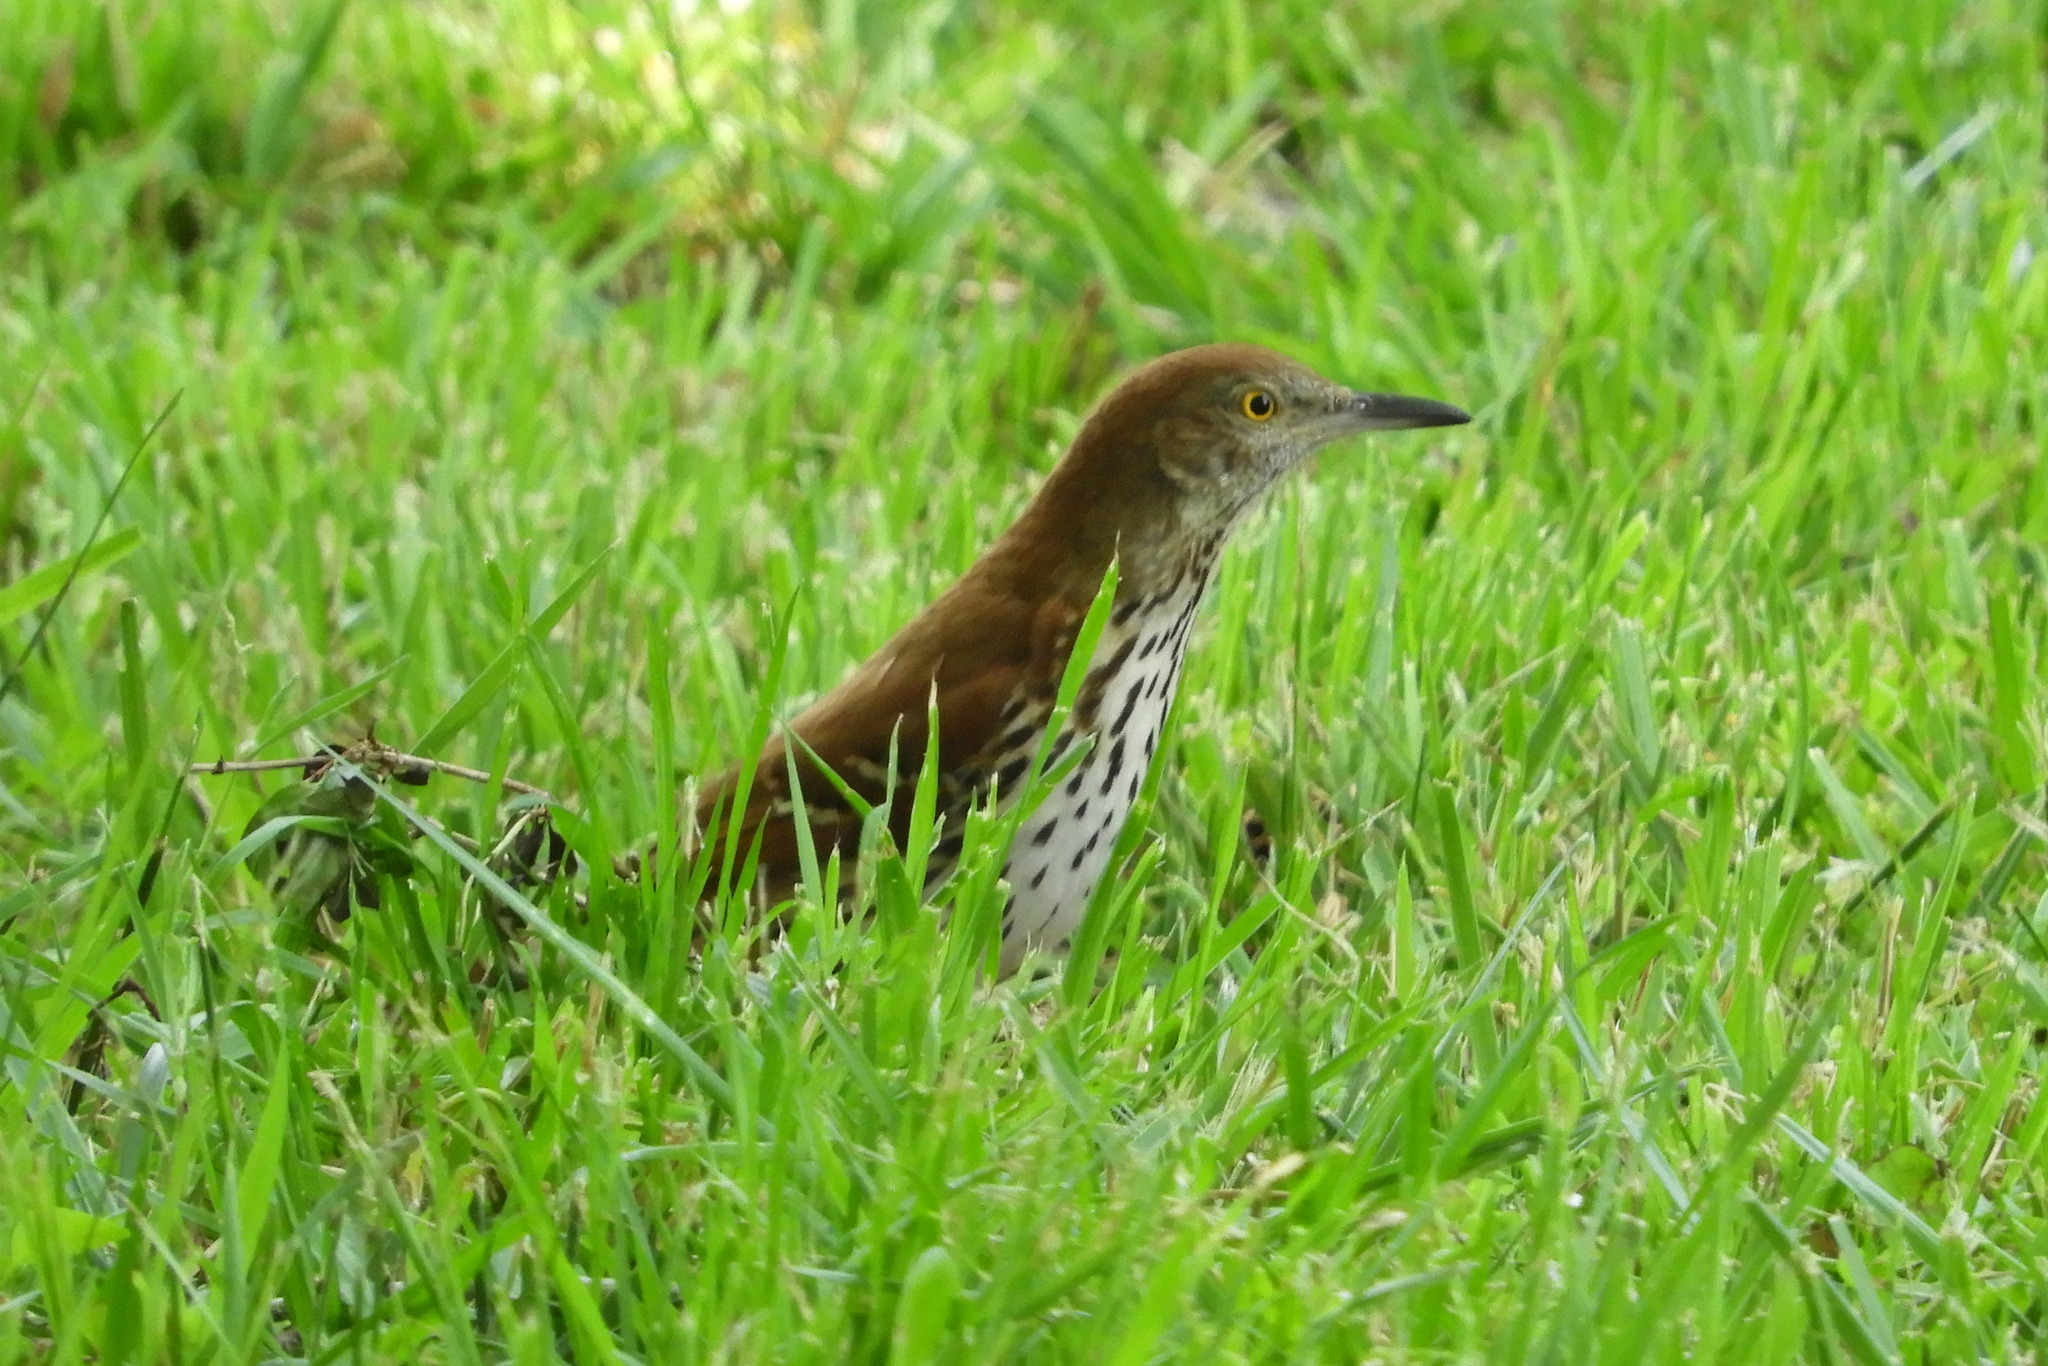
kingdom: Animalia
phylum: Chordata
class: Aves
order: Passeriformes
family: Mimidae
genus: Toxostoma
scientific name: Toxostoma rufum
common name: Brown thrasher
